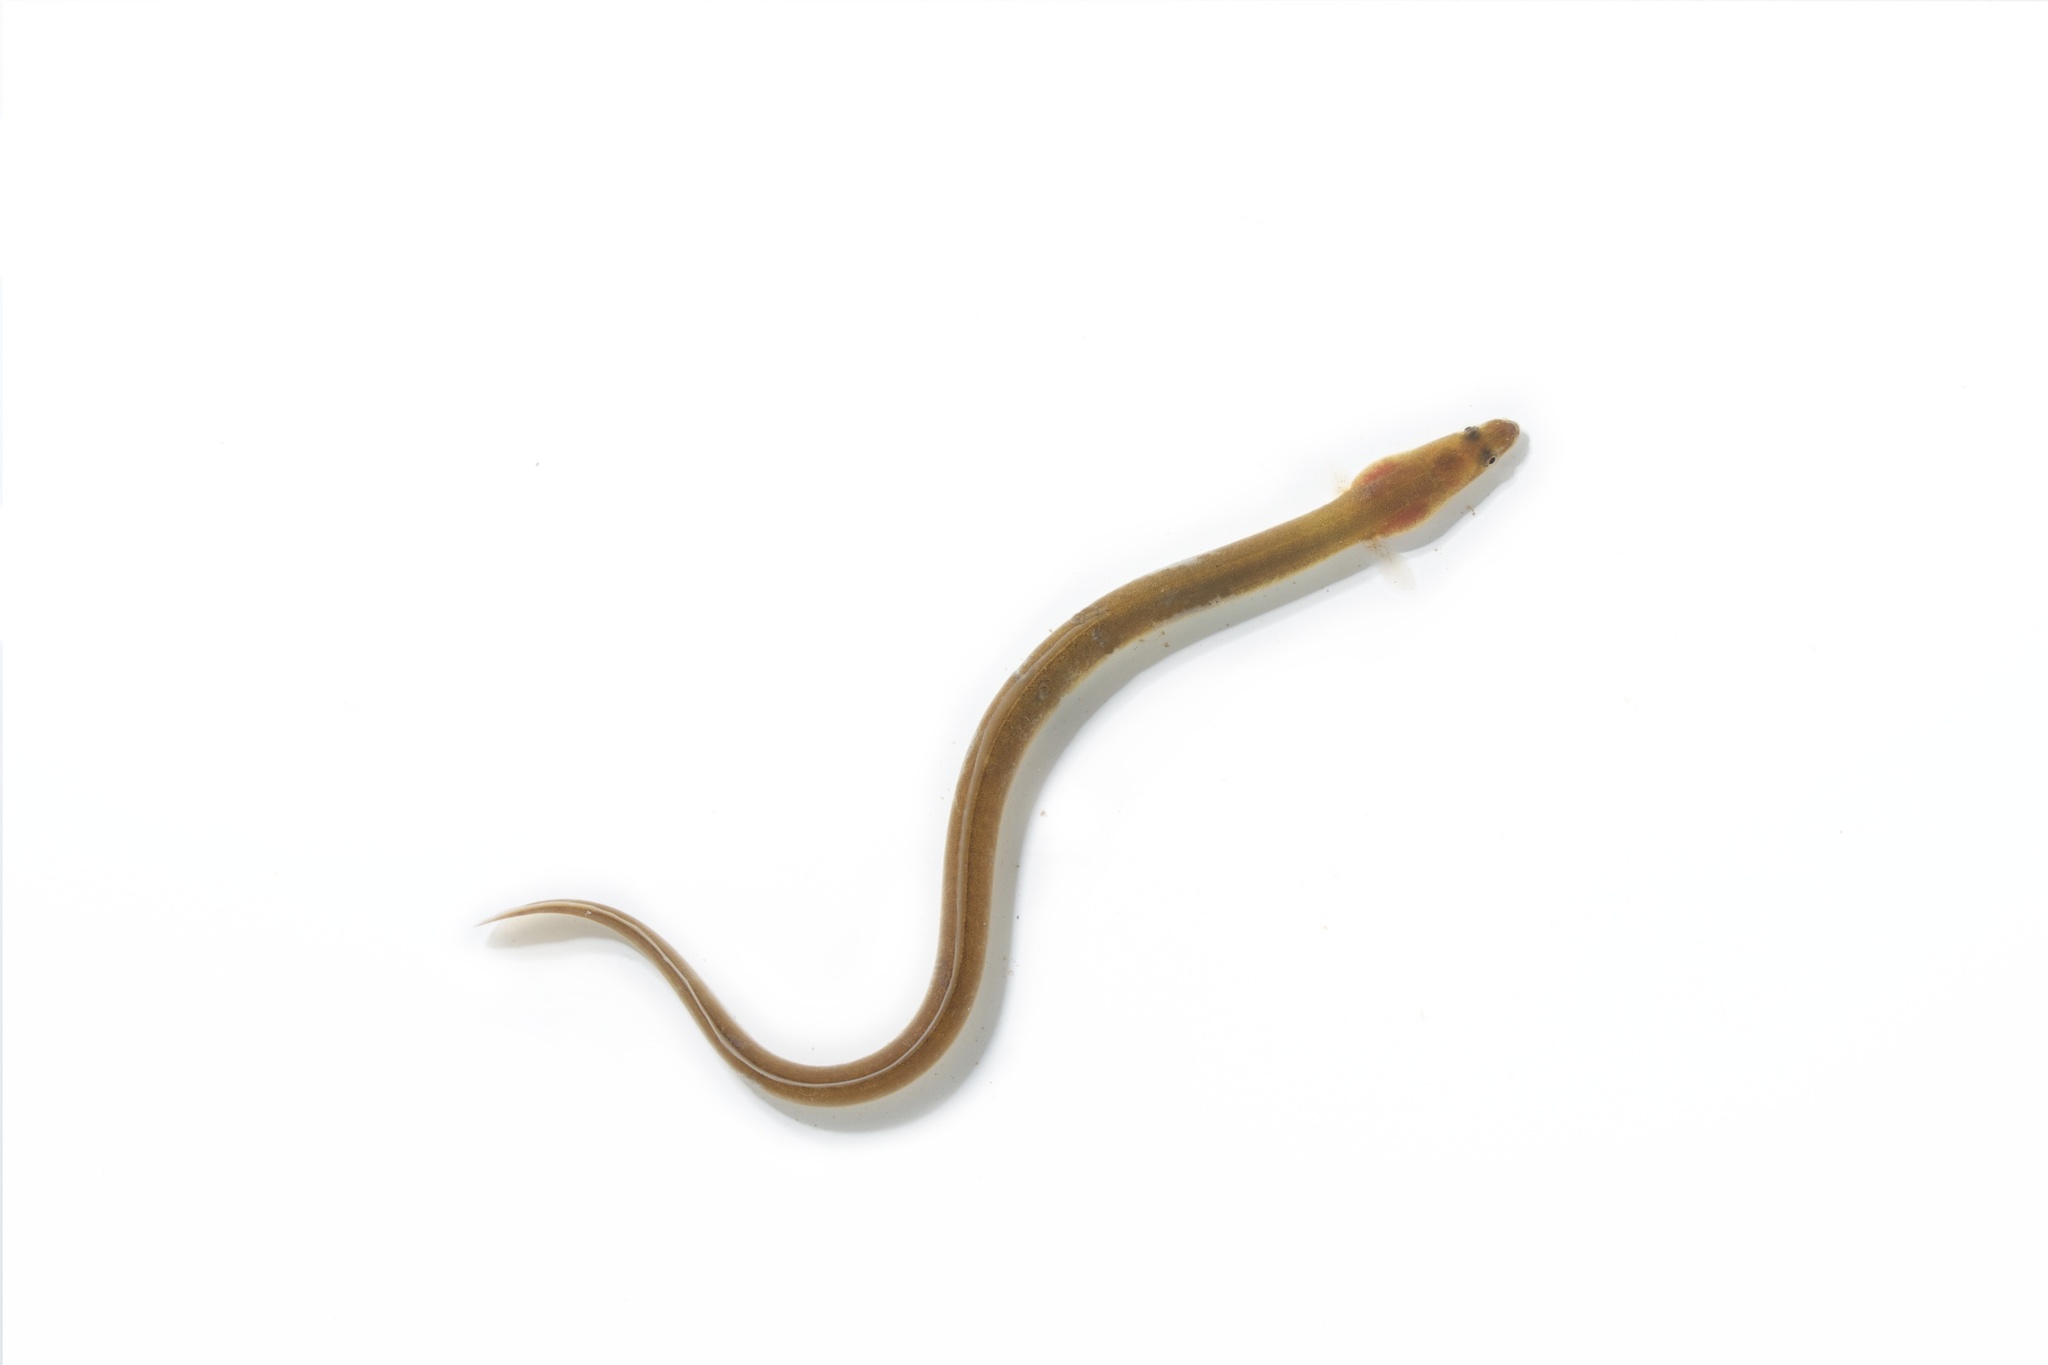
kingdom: Animalia
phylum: Chordata
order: Anguilliformes
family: Anguillidae
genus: Anguilla
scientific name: Anguilla rostrata
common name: American eel
